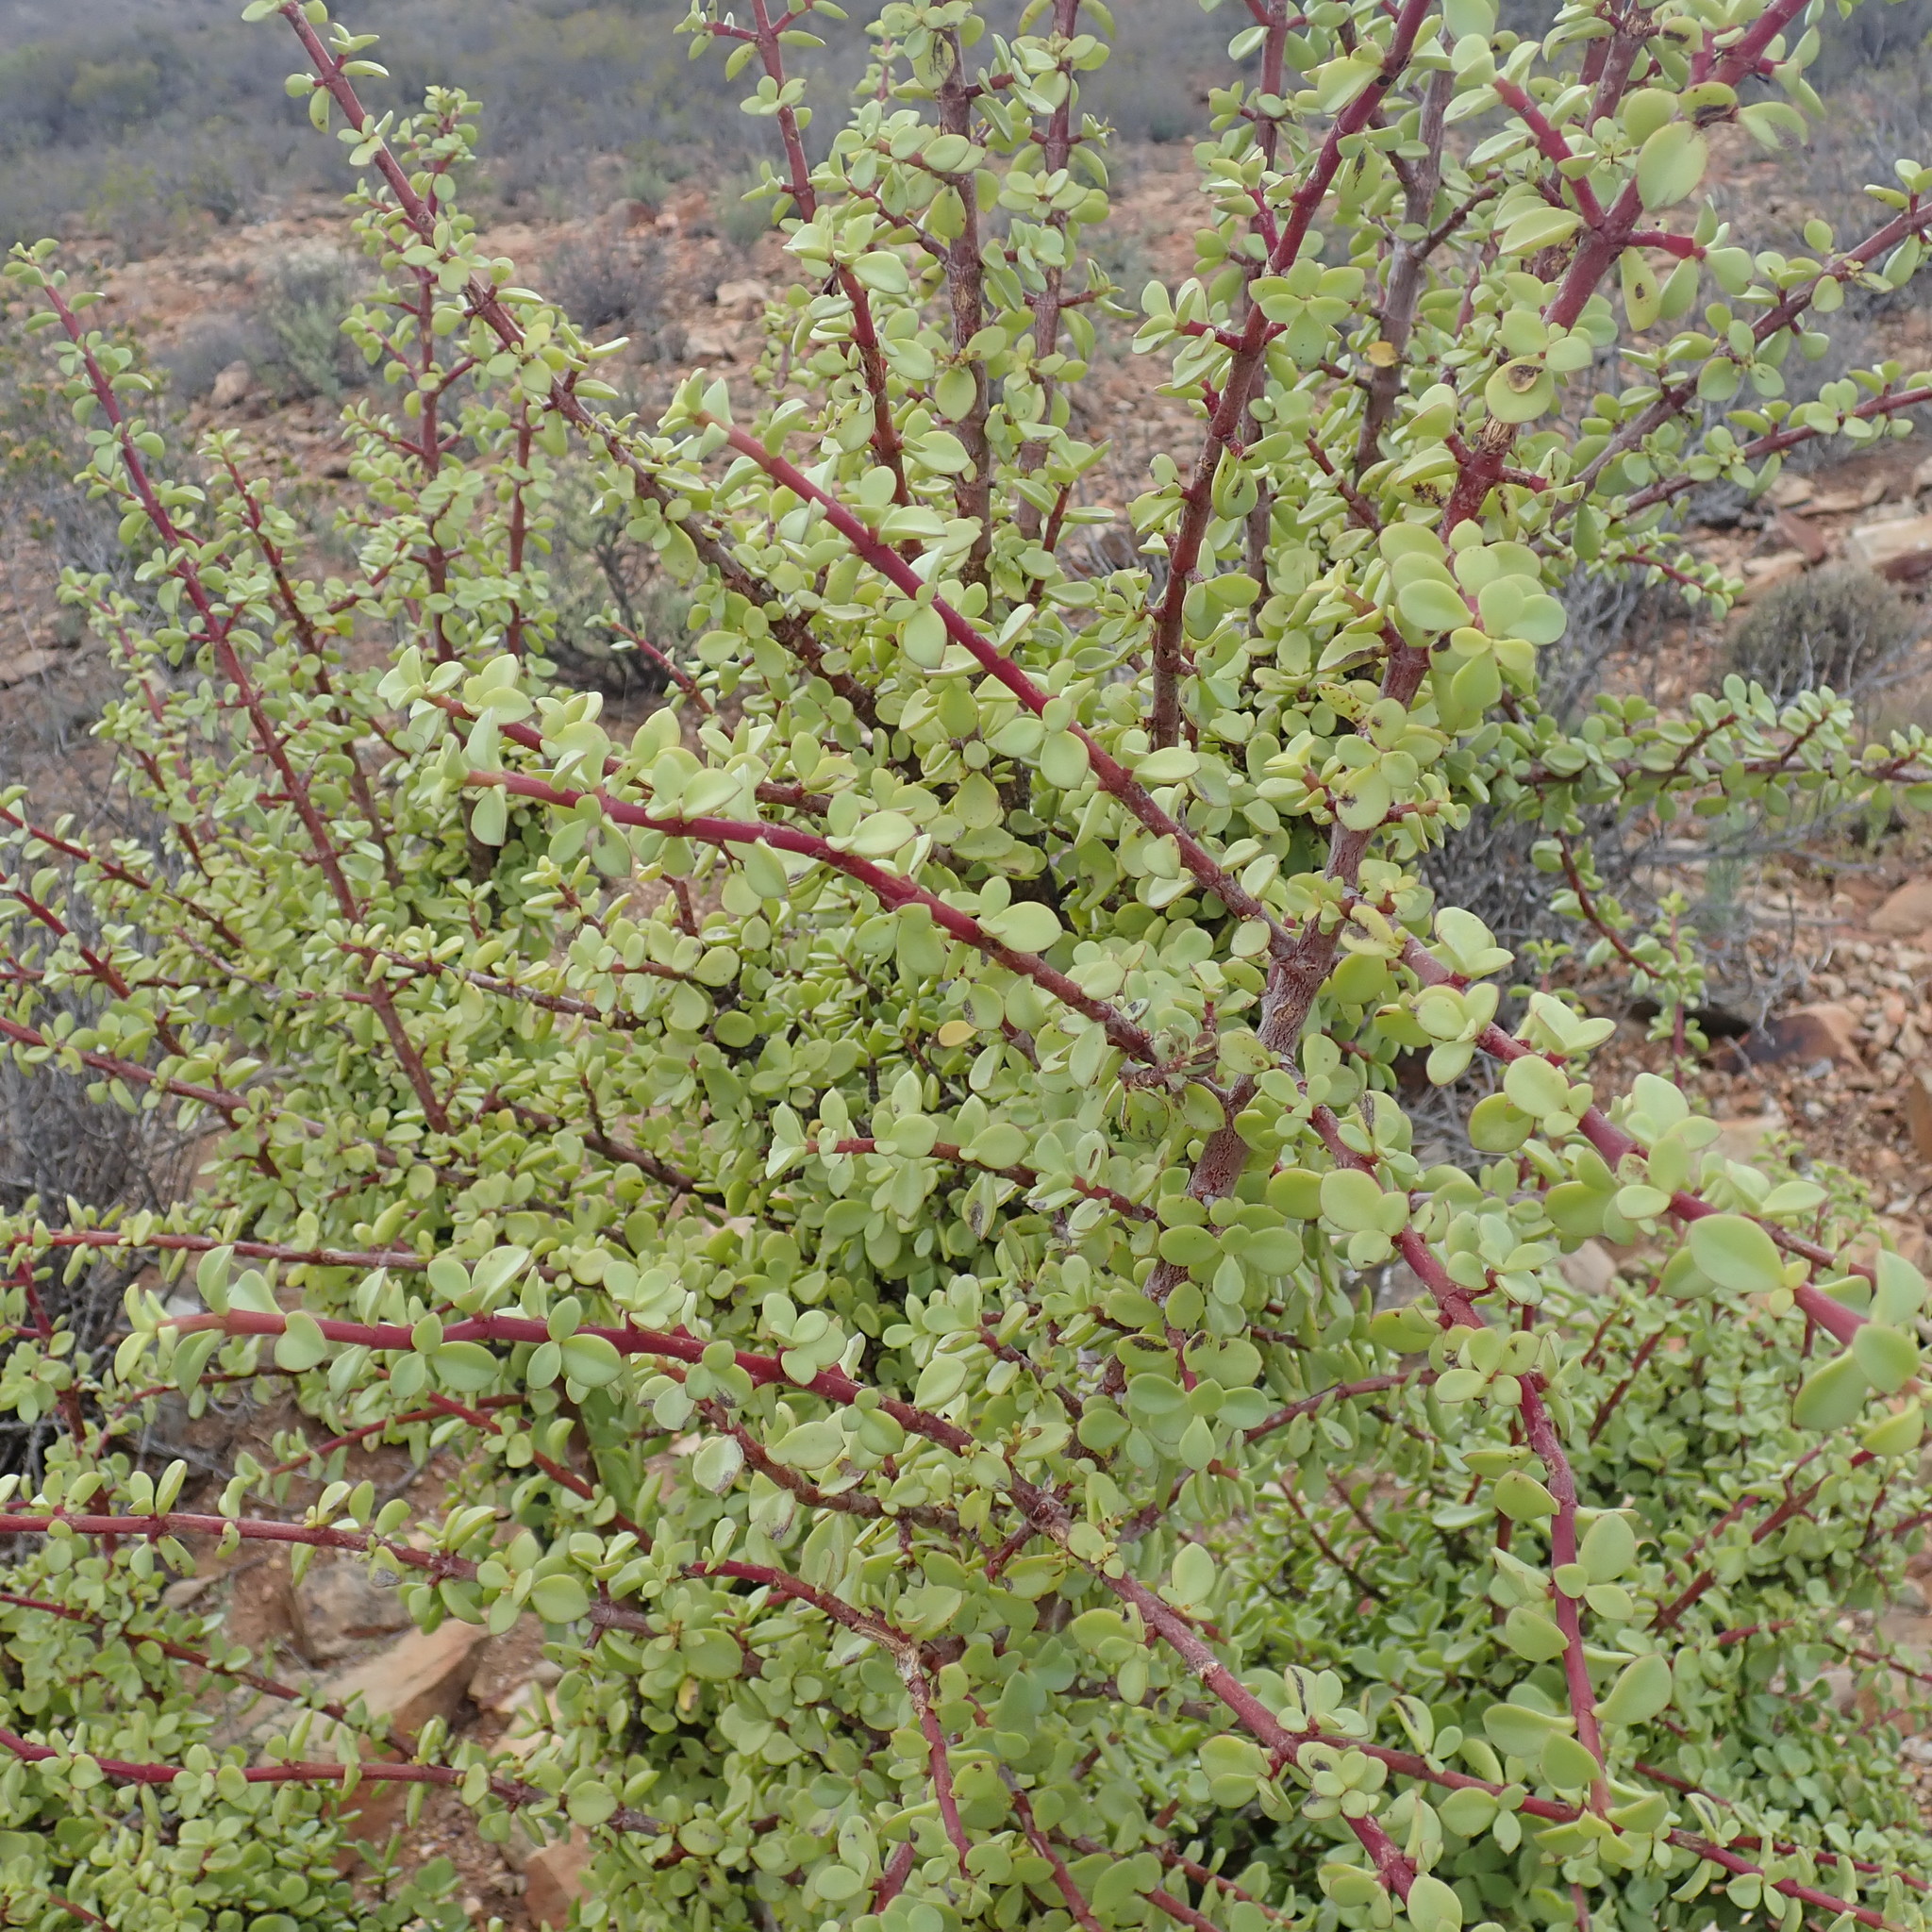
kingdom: Plantae
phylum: Tracheophyta
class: Magnoliopsida
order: Caryophyllales
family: Didiereaceae
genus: Portulacaria
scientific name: Portulacaria afra
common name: Elephant-bush
